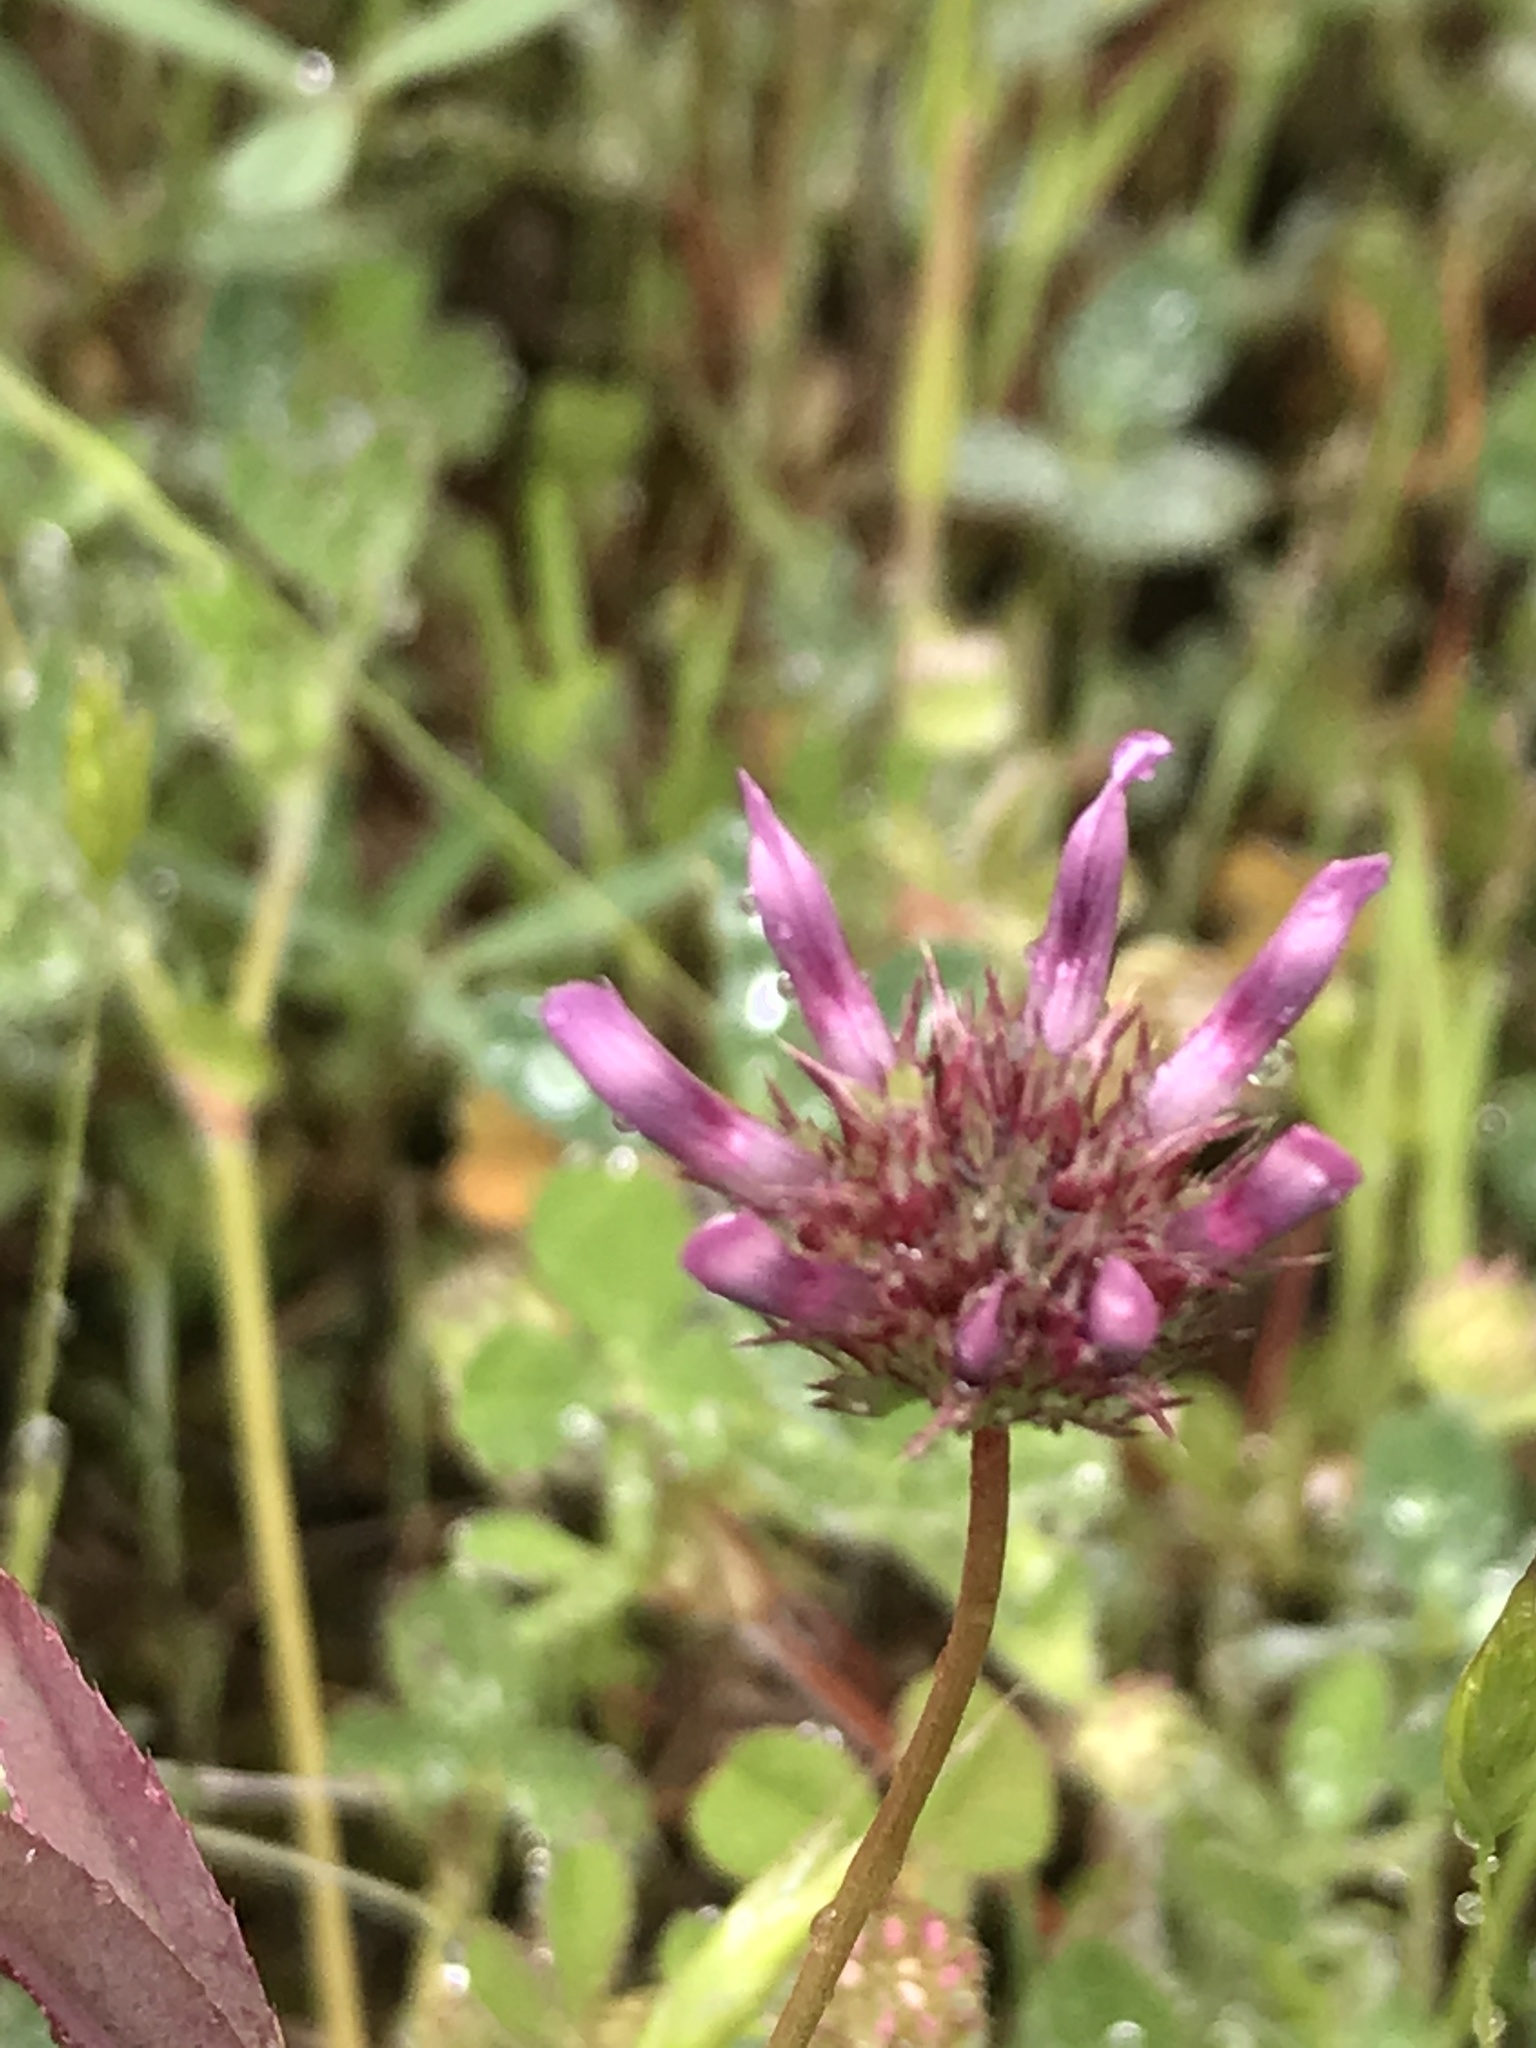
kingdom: Plantae
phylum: Tracheophyta
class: Magnoliopsida
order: Fabales
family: Fabaceae
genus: Trifolium
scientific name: Trifolium willdenovii
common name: Tomcat clover
